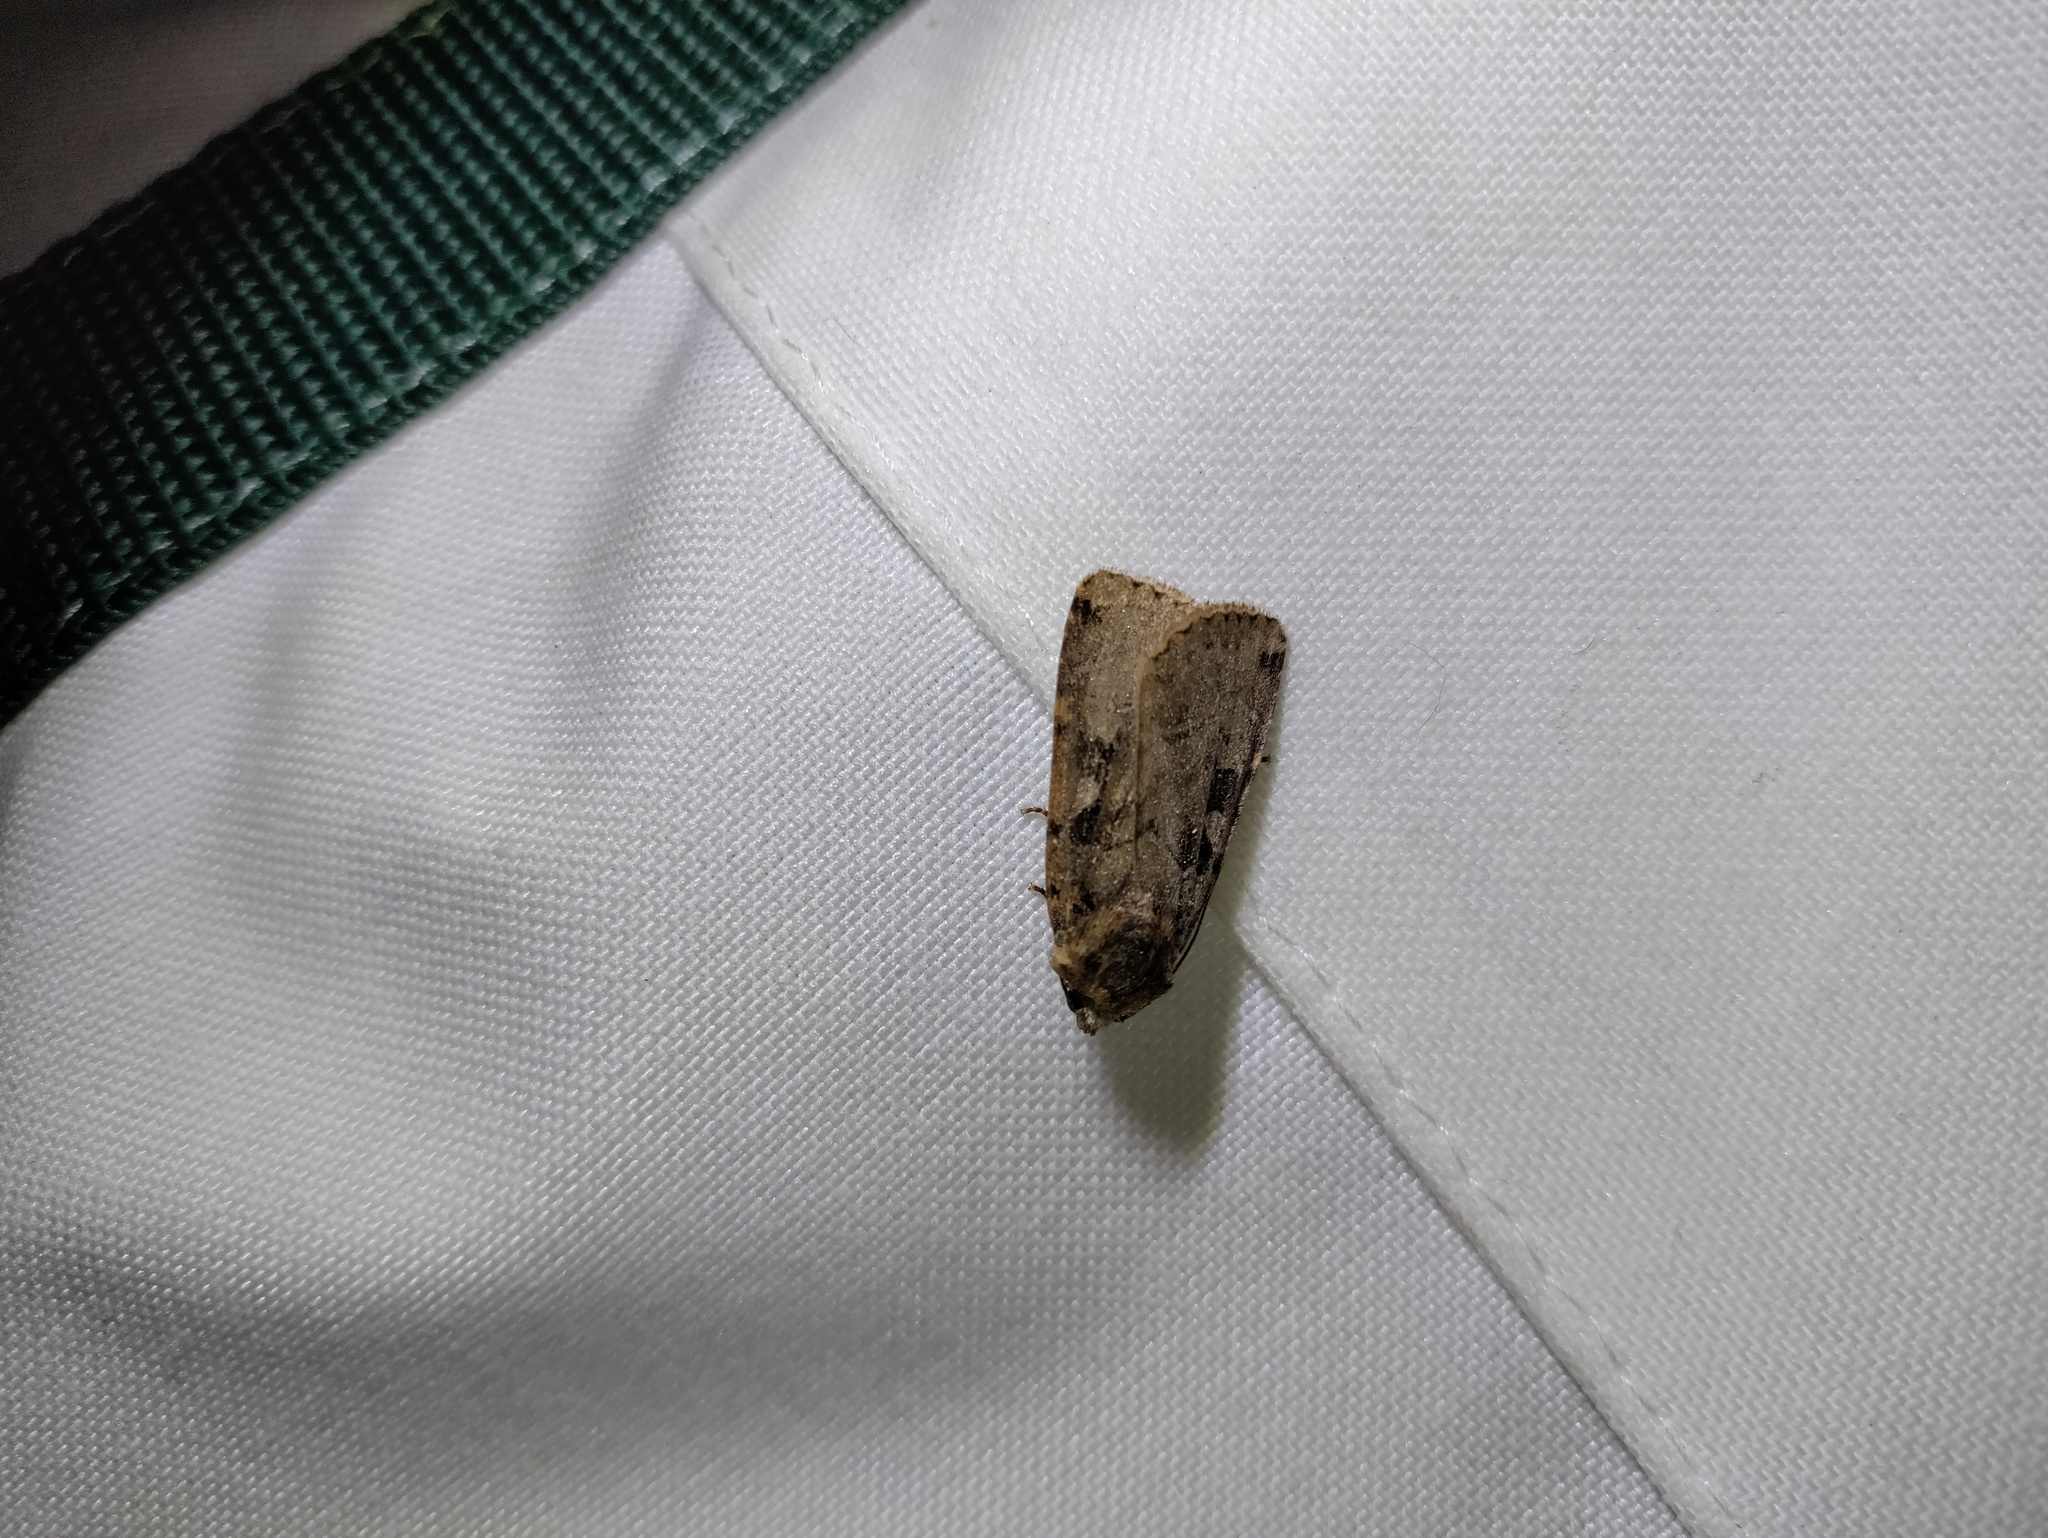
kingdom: Animalia
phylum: Arthropoda
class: Insecta
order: Lepidoptera
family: Noctuidae
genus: Xestia
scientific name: Xestia triangulum
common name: Double square-spot
